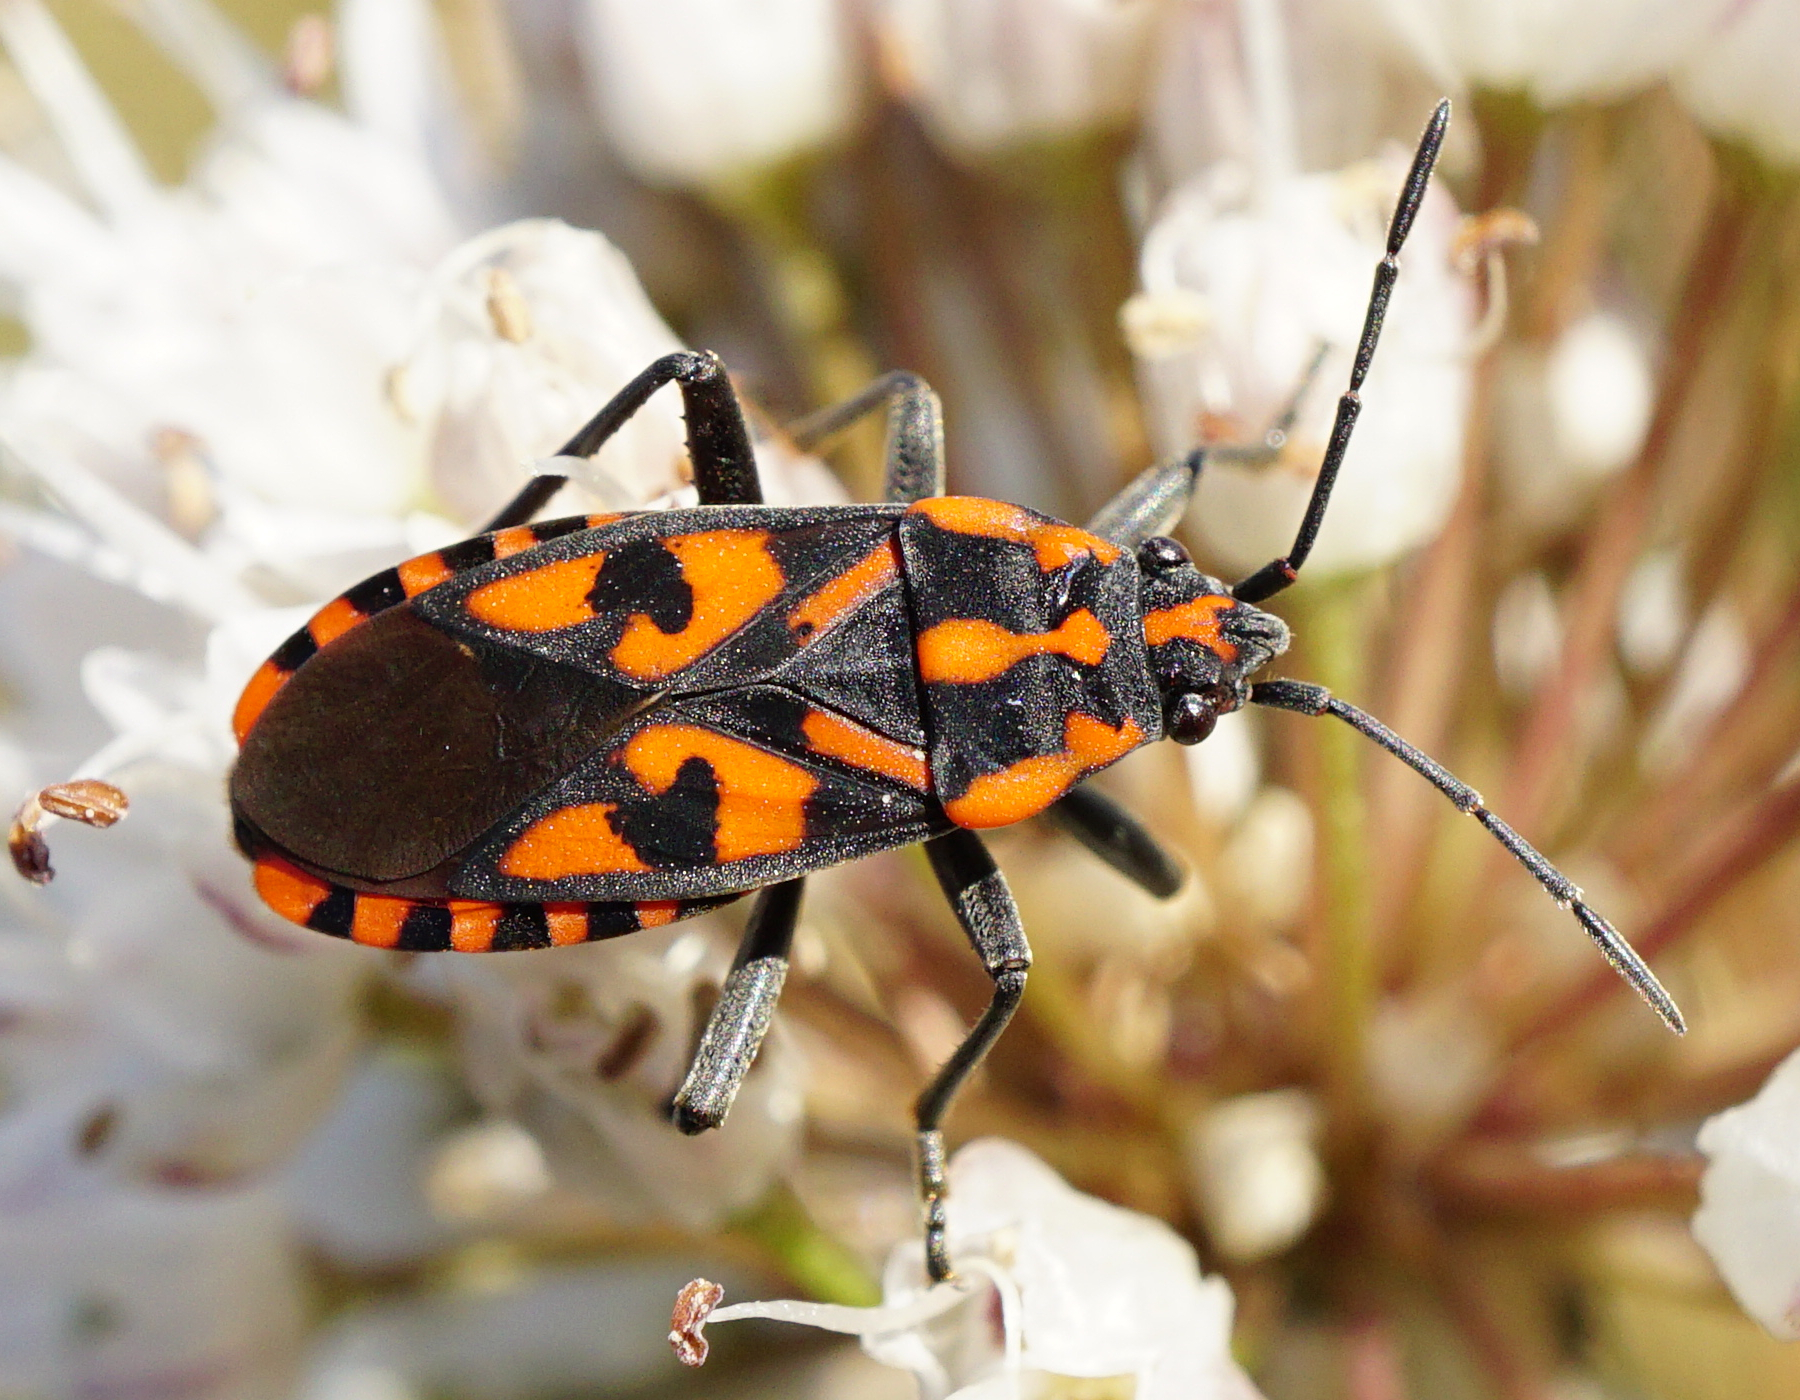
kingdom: Animalia
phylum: Arthropoda
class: Insecta
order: Hemiptera
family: Lygaeidae
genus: Spilostethus
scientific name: Spilostethus saxatilis
